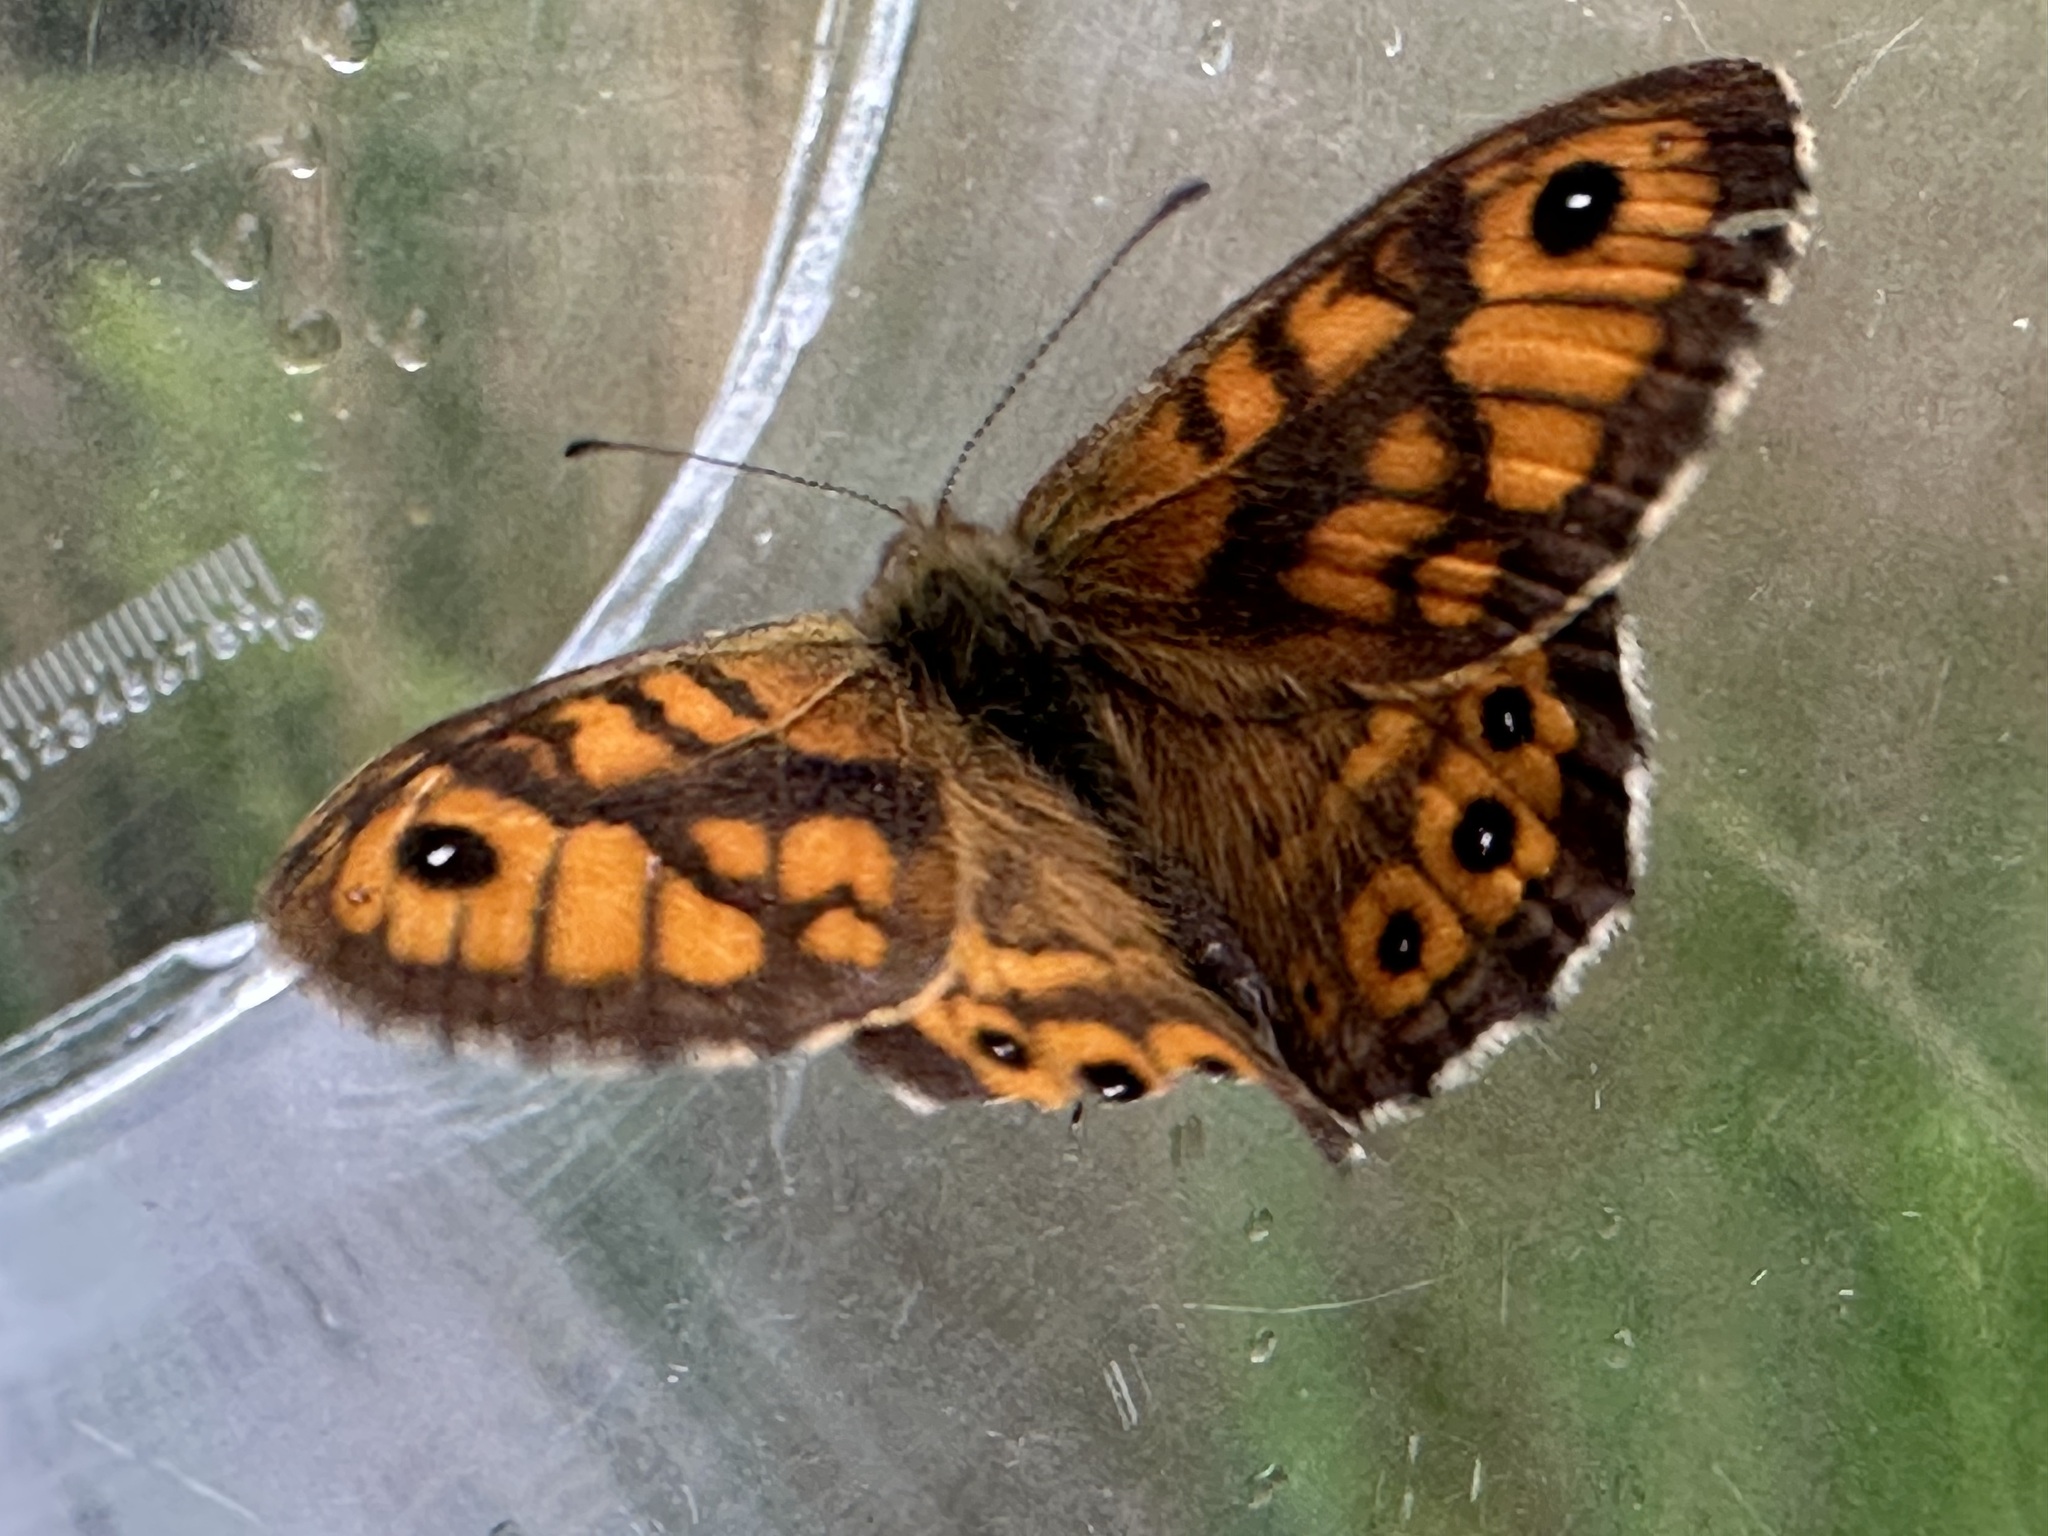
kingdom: Animalia
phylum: Arthropoda
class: Insecta
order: Lepidoptera
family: Nymphalidae
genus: Pararge
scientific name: Pararge Lasiommata megera
